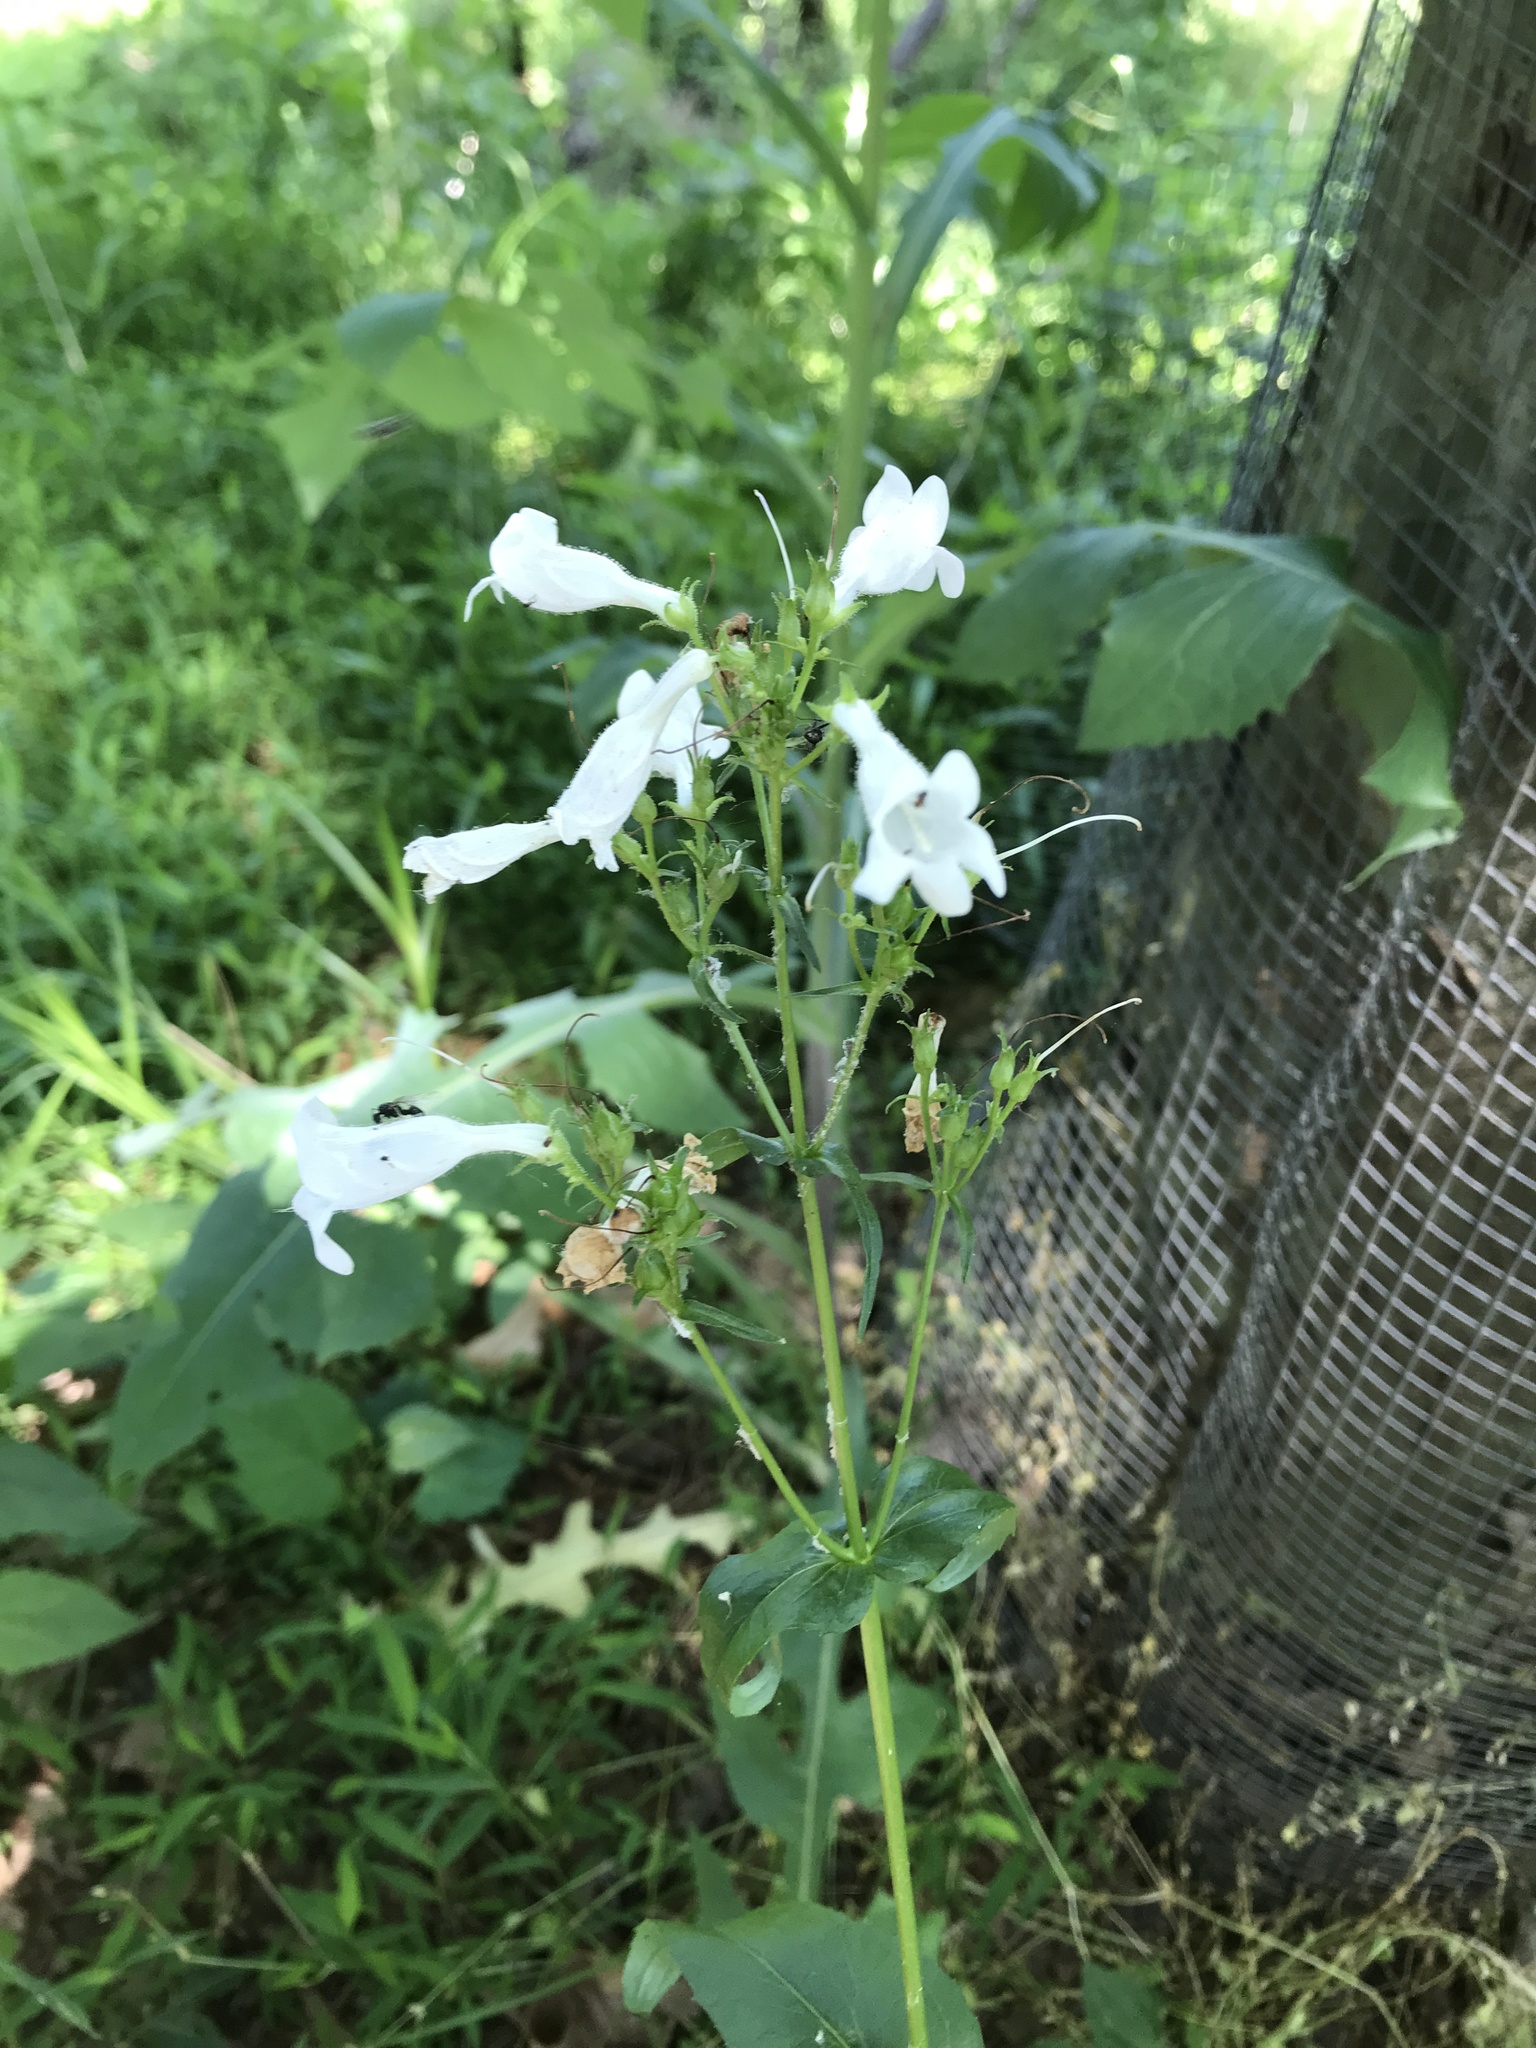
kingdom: Plantae
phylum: Tracheophyta
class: Magnoliopsida
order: Lamiales
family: Plantaginaceae
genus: Penstemon
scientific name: Penstemon digitalis
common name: Foxglove beardtongue
